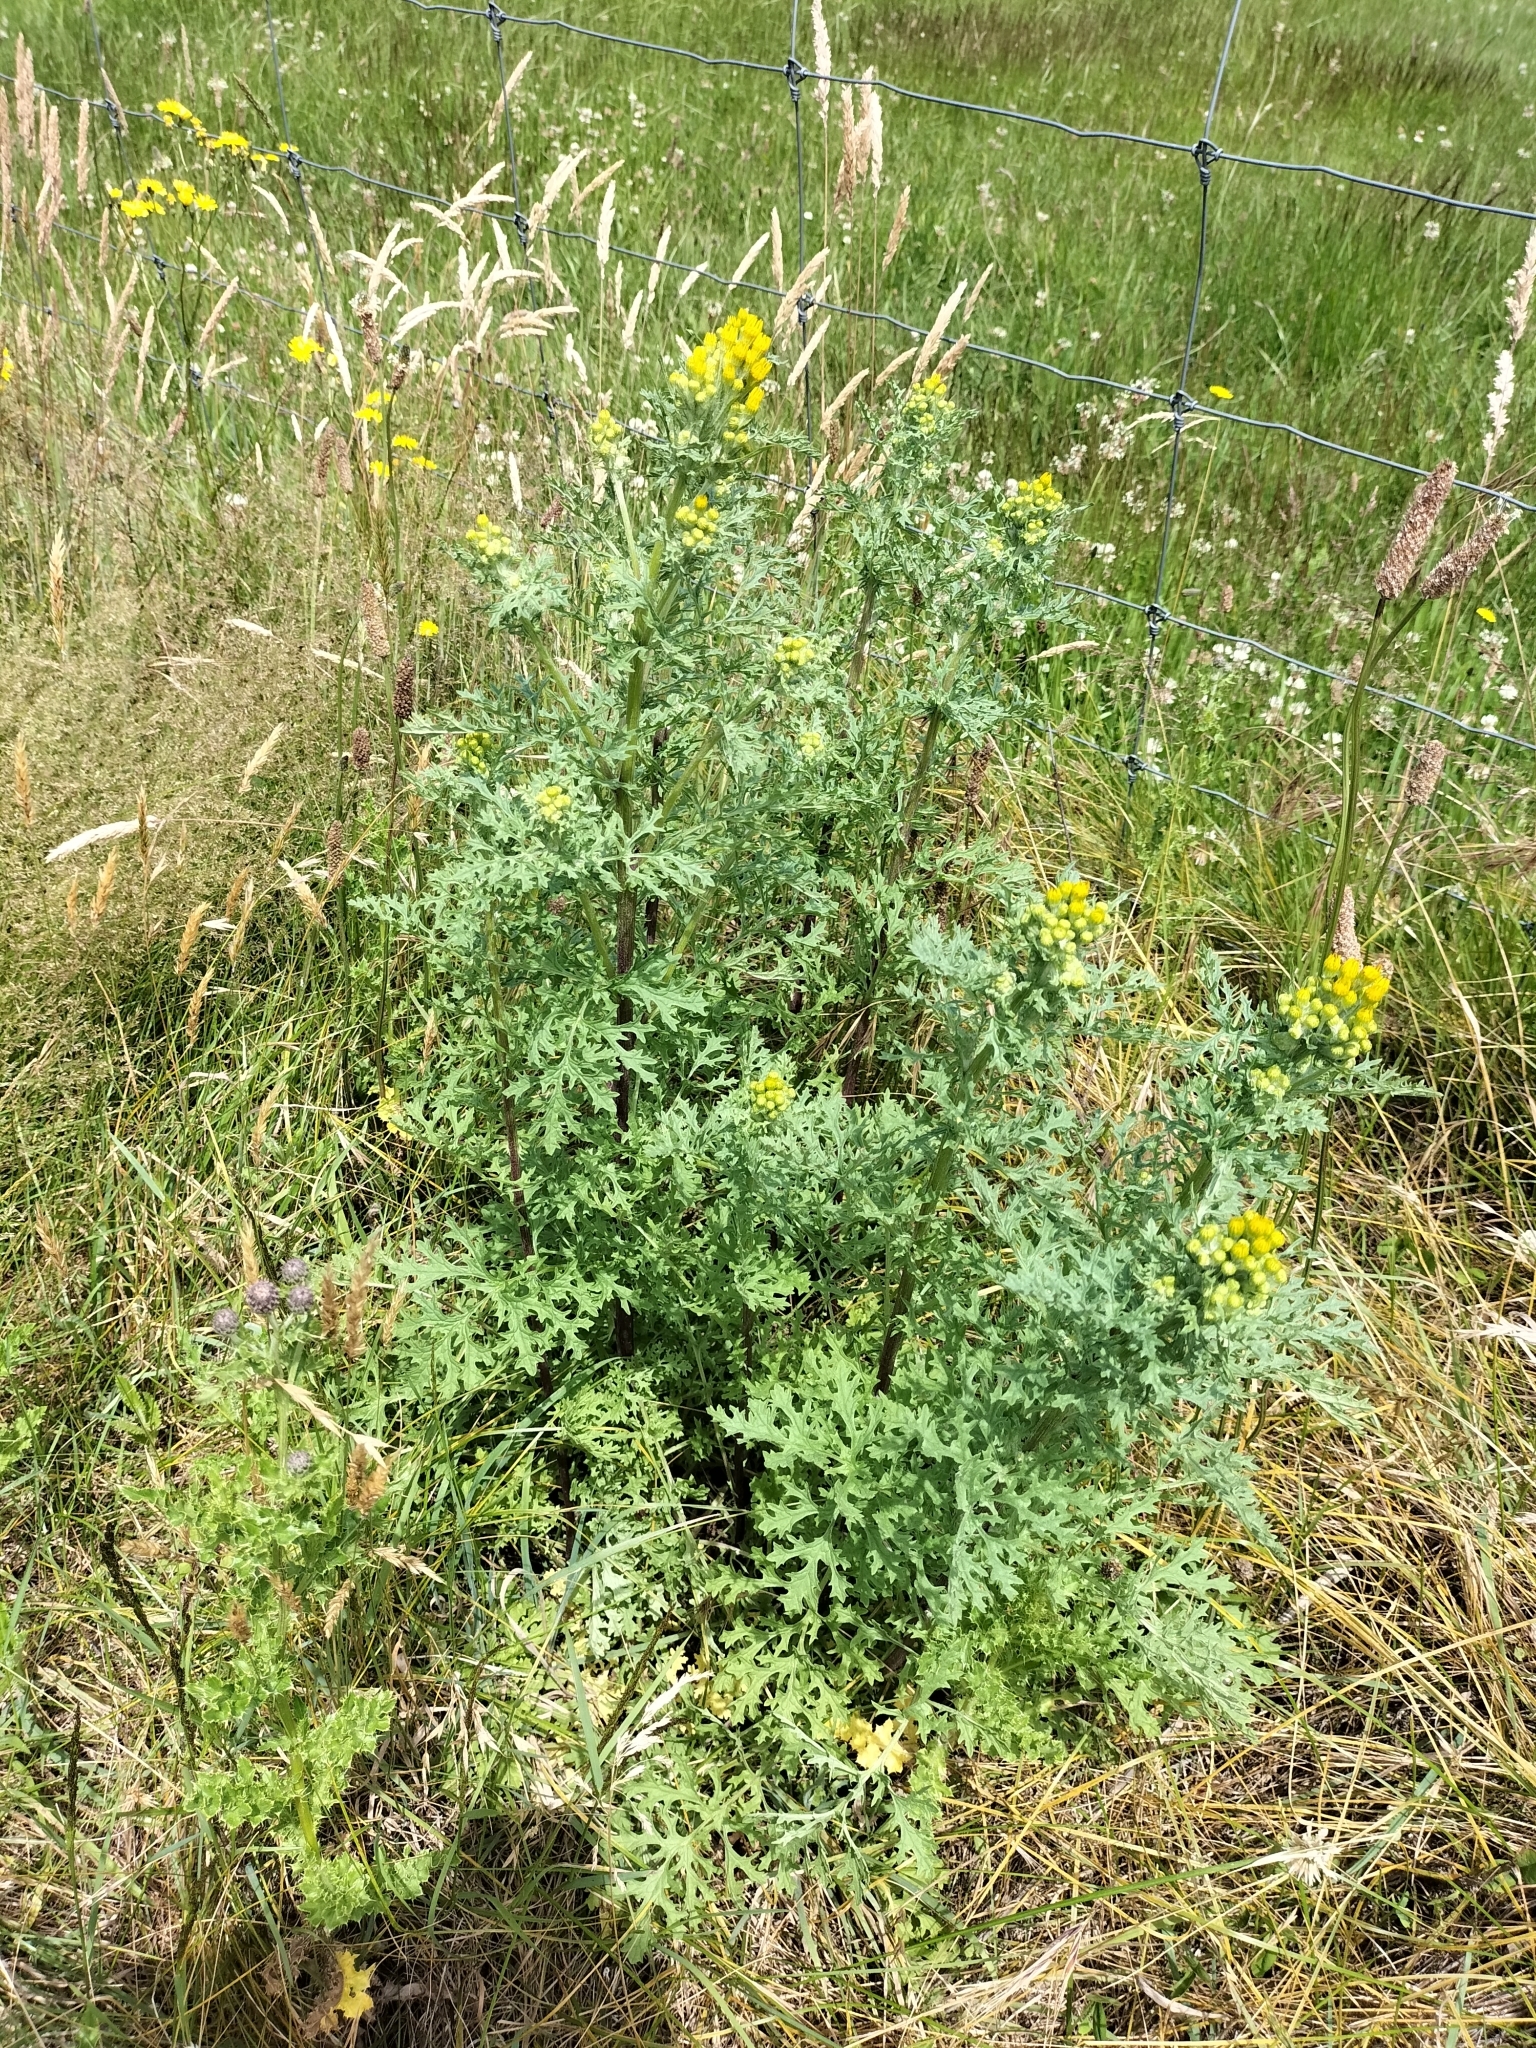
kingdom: Plantae
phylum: Tracheophyta
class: Magnoliopsida
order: Asterales
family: Asteraceae
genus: Jacobaea
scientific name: Jacobaea vulgaris
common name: Stinking willie
